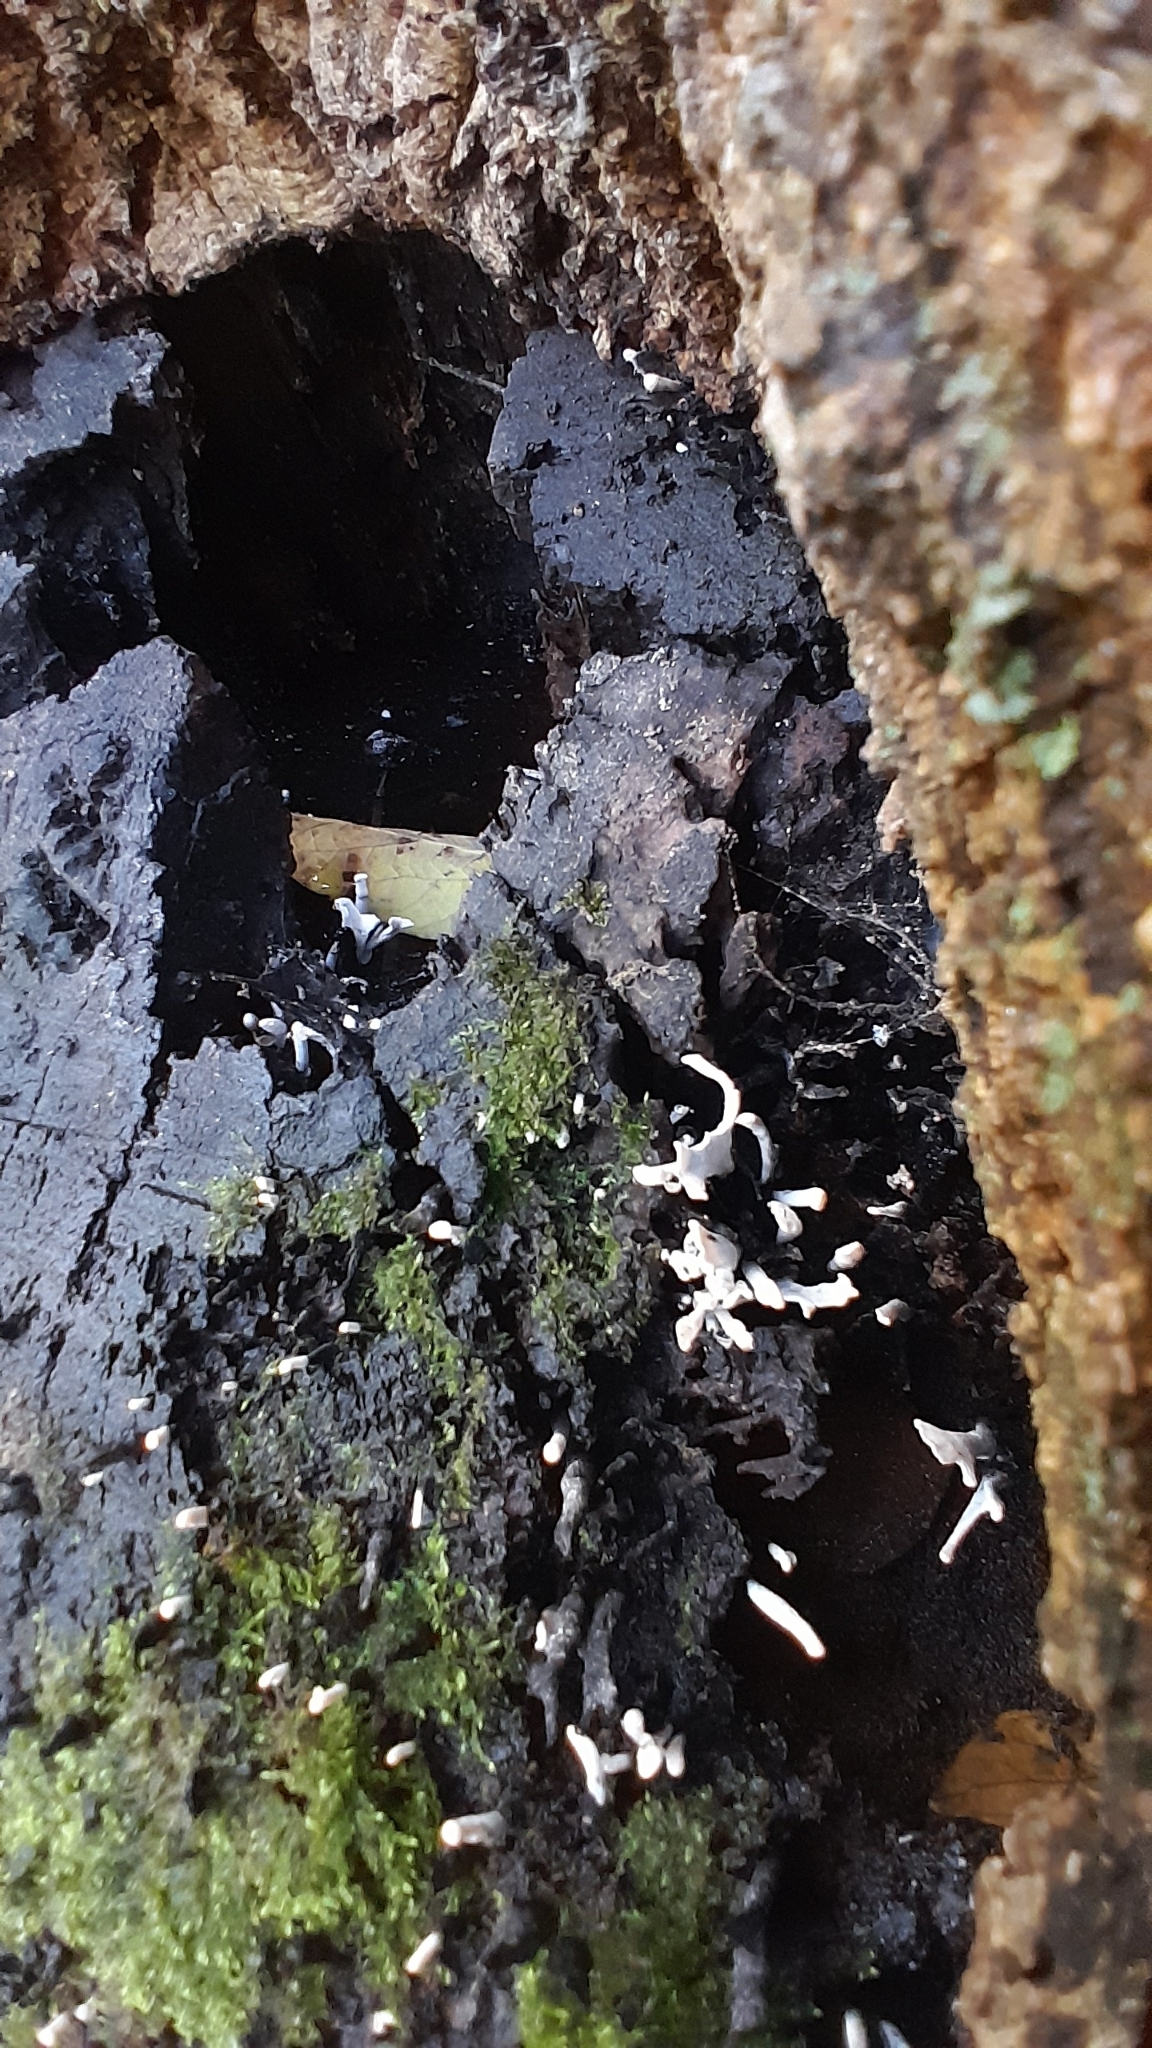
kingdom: Fungi
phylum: Ascomycota
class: Sordariomycetes
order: Xylariales
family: Xylariaceae
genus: Xylaria
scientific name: Xylaria hypoxylon
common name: Candle-snuff fungus
